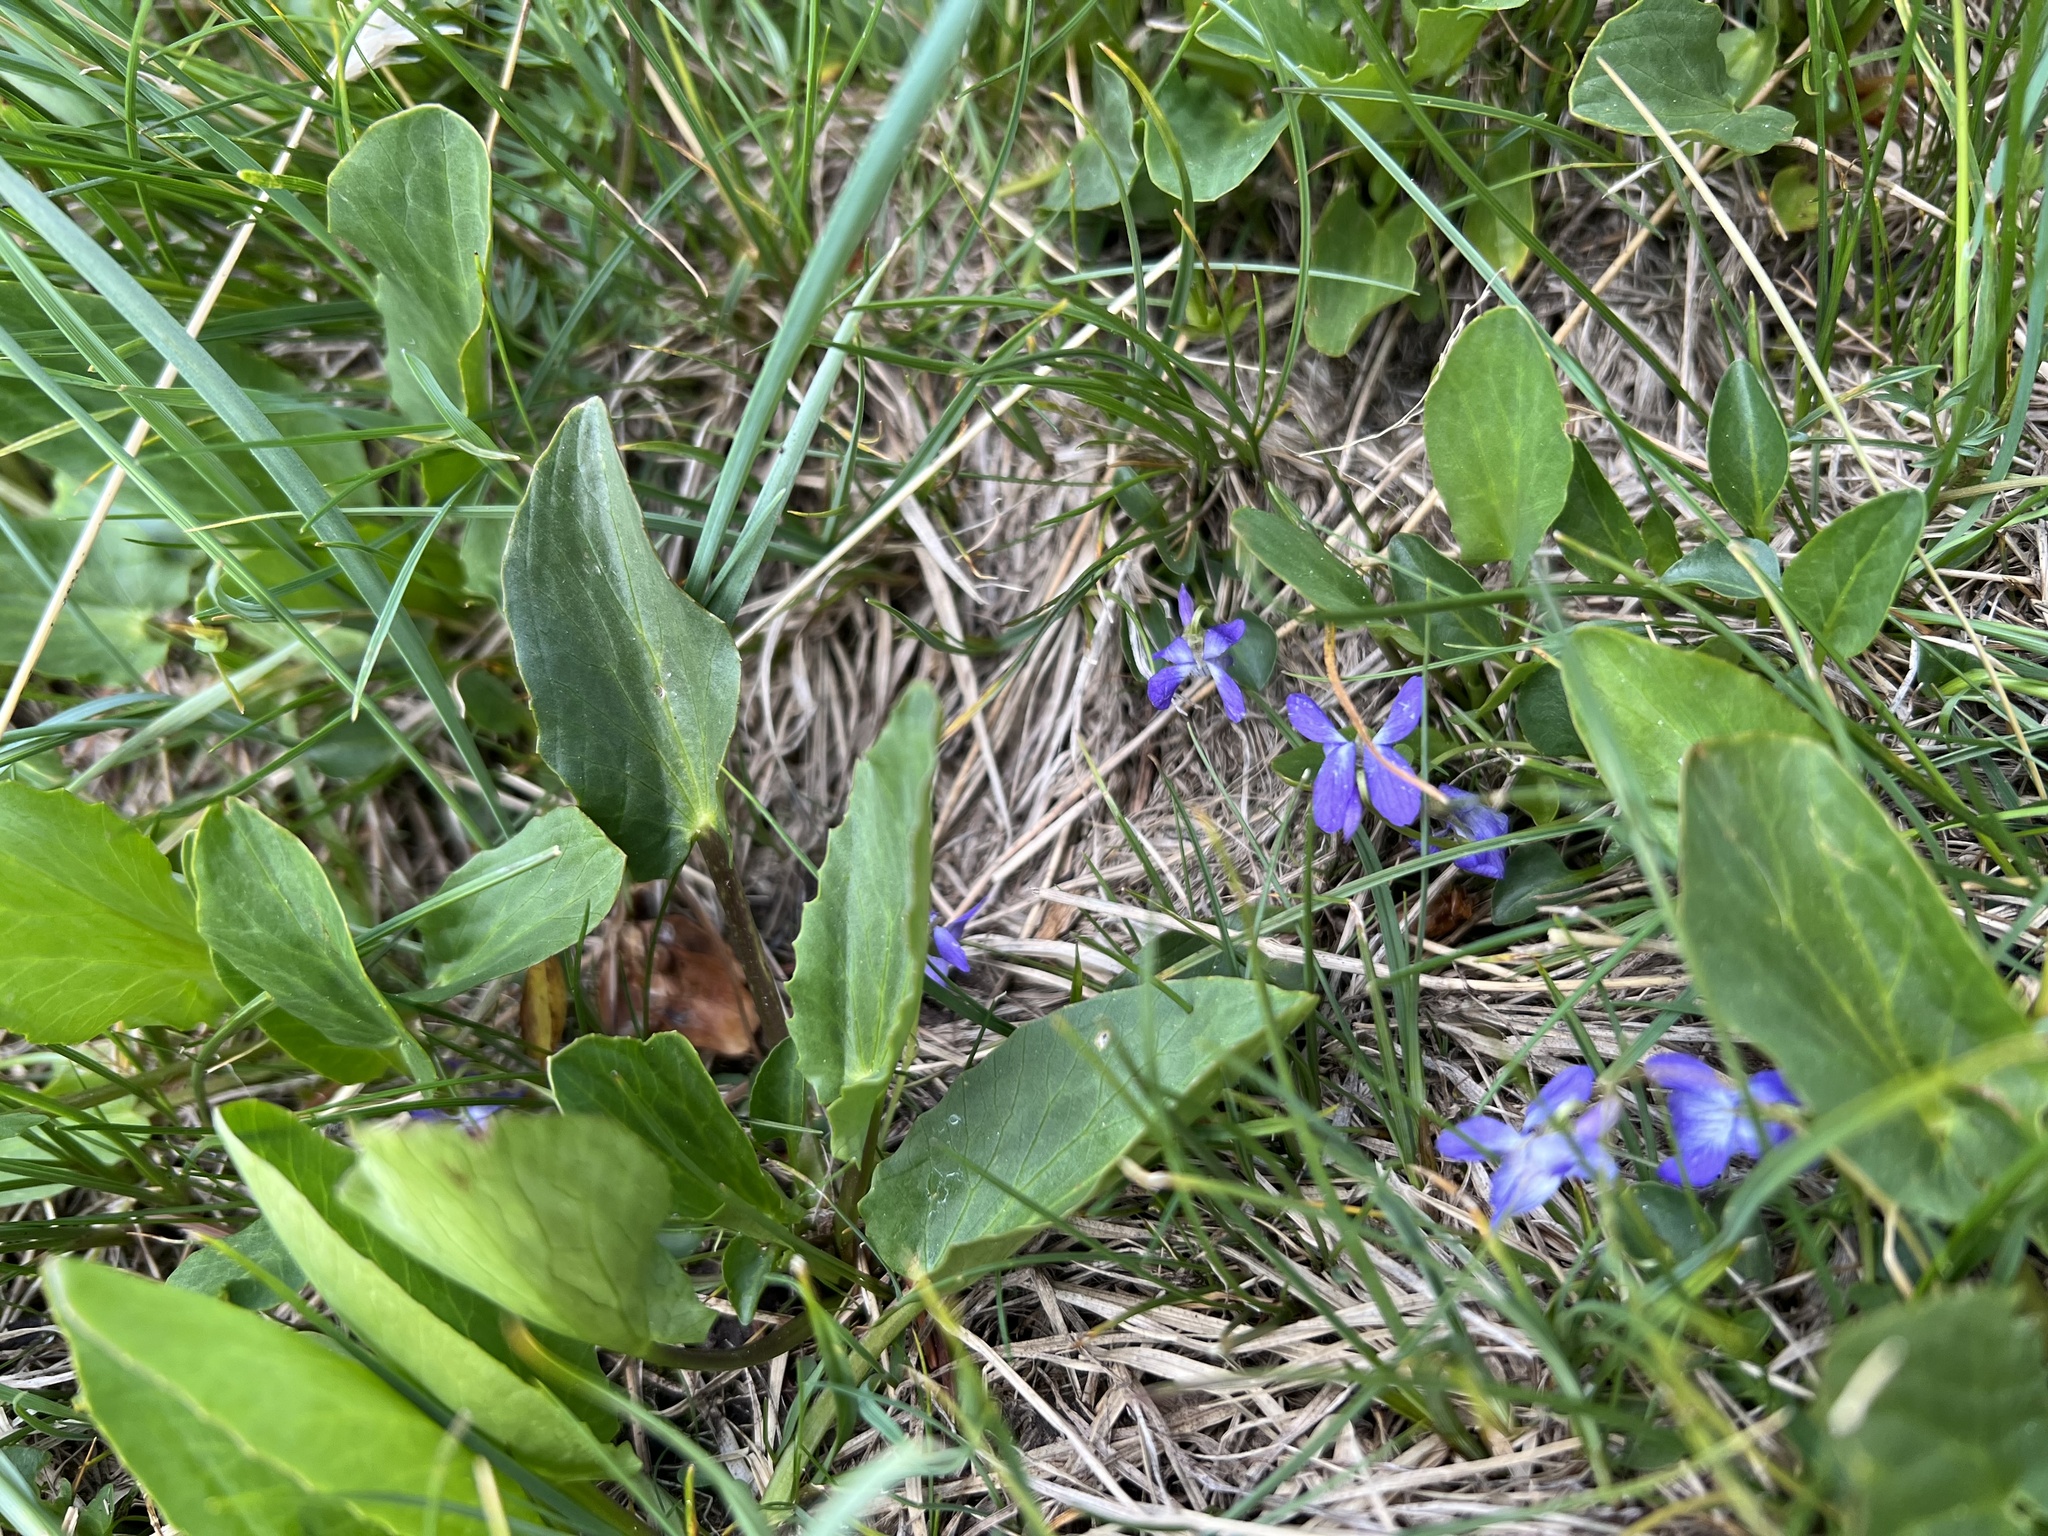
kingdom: Plantae
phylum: Tracheophyta
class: Magnoliopsida
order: Malpighiales
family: Violaceae
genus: Viola
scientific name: Viola nephrophylla
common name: Blue meadow violet
